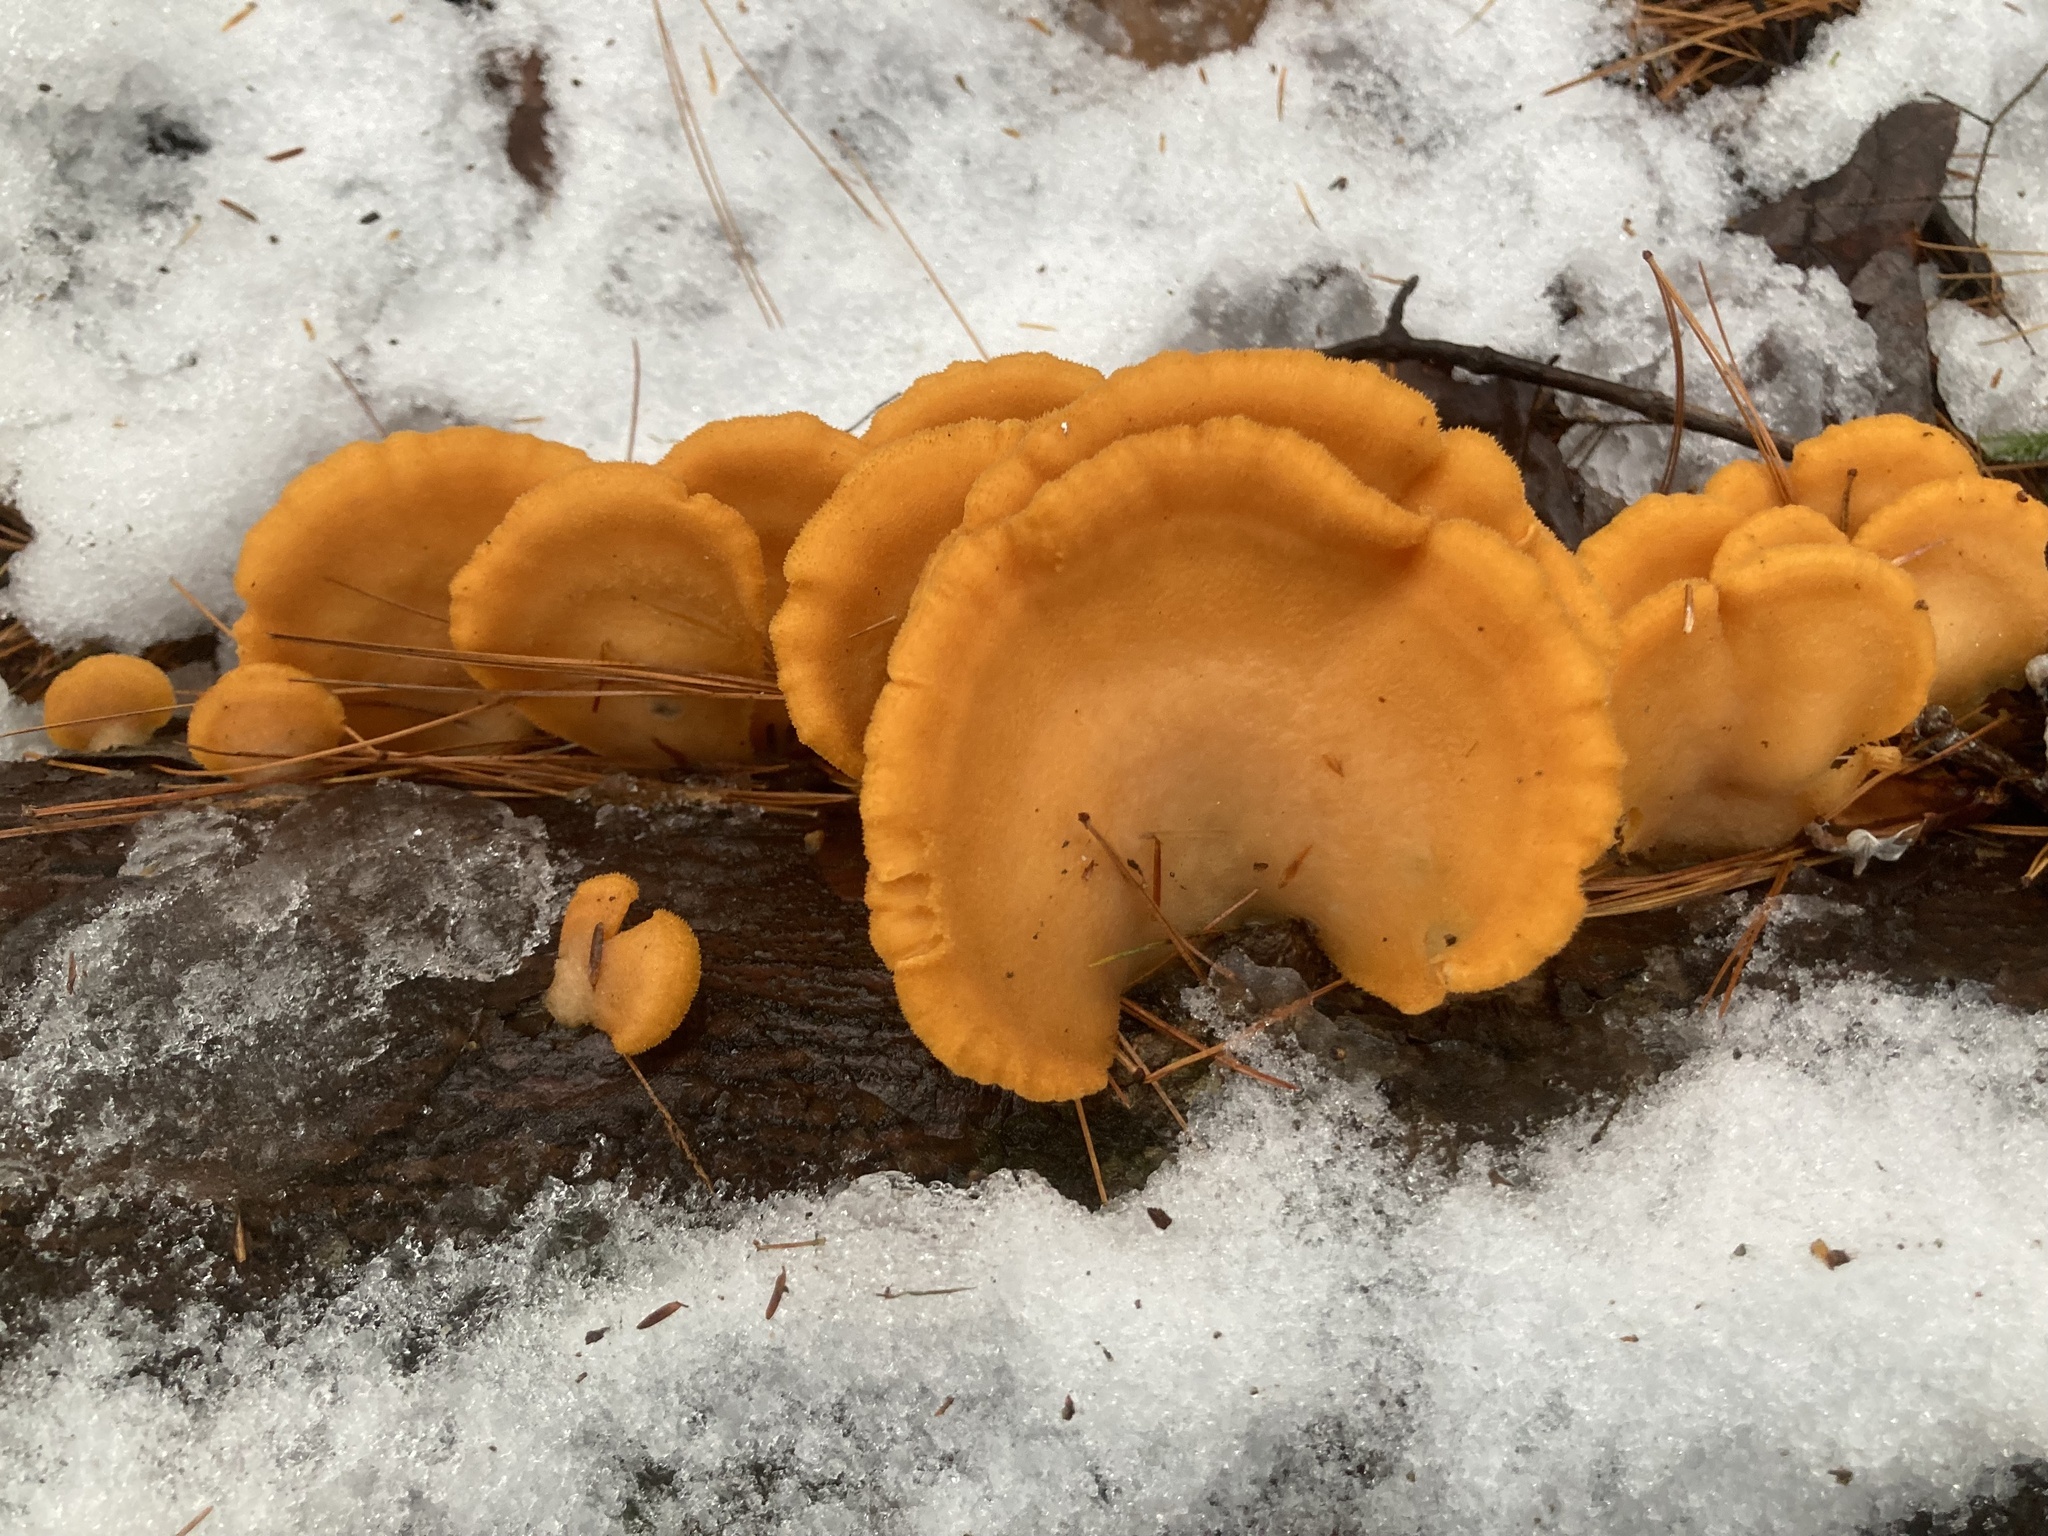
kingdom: Fungi
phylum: Basidiomycota
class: Agaricomycetes
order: Agaricales
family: Phyllotopsidaceae
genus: Phyllotopsis
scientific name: Phyllotopsis nidulans
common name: Orange mock oyster
